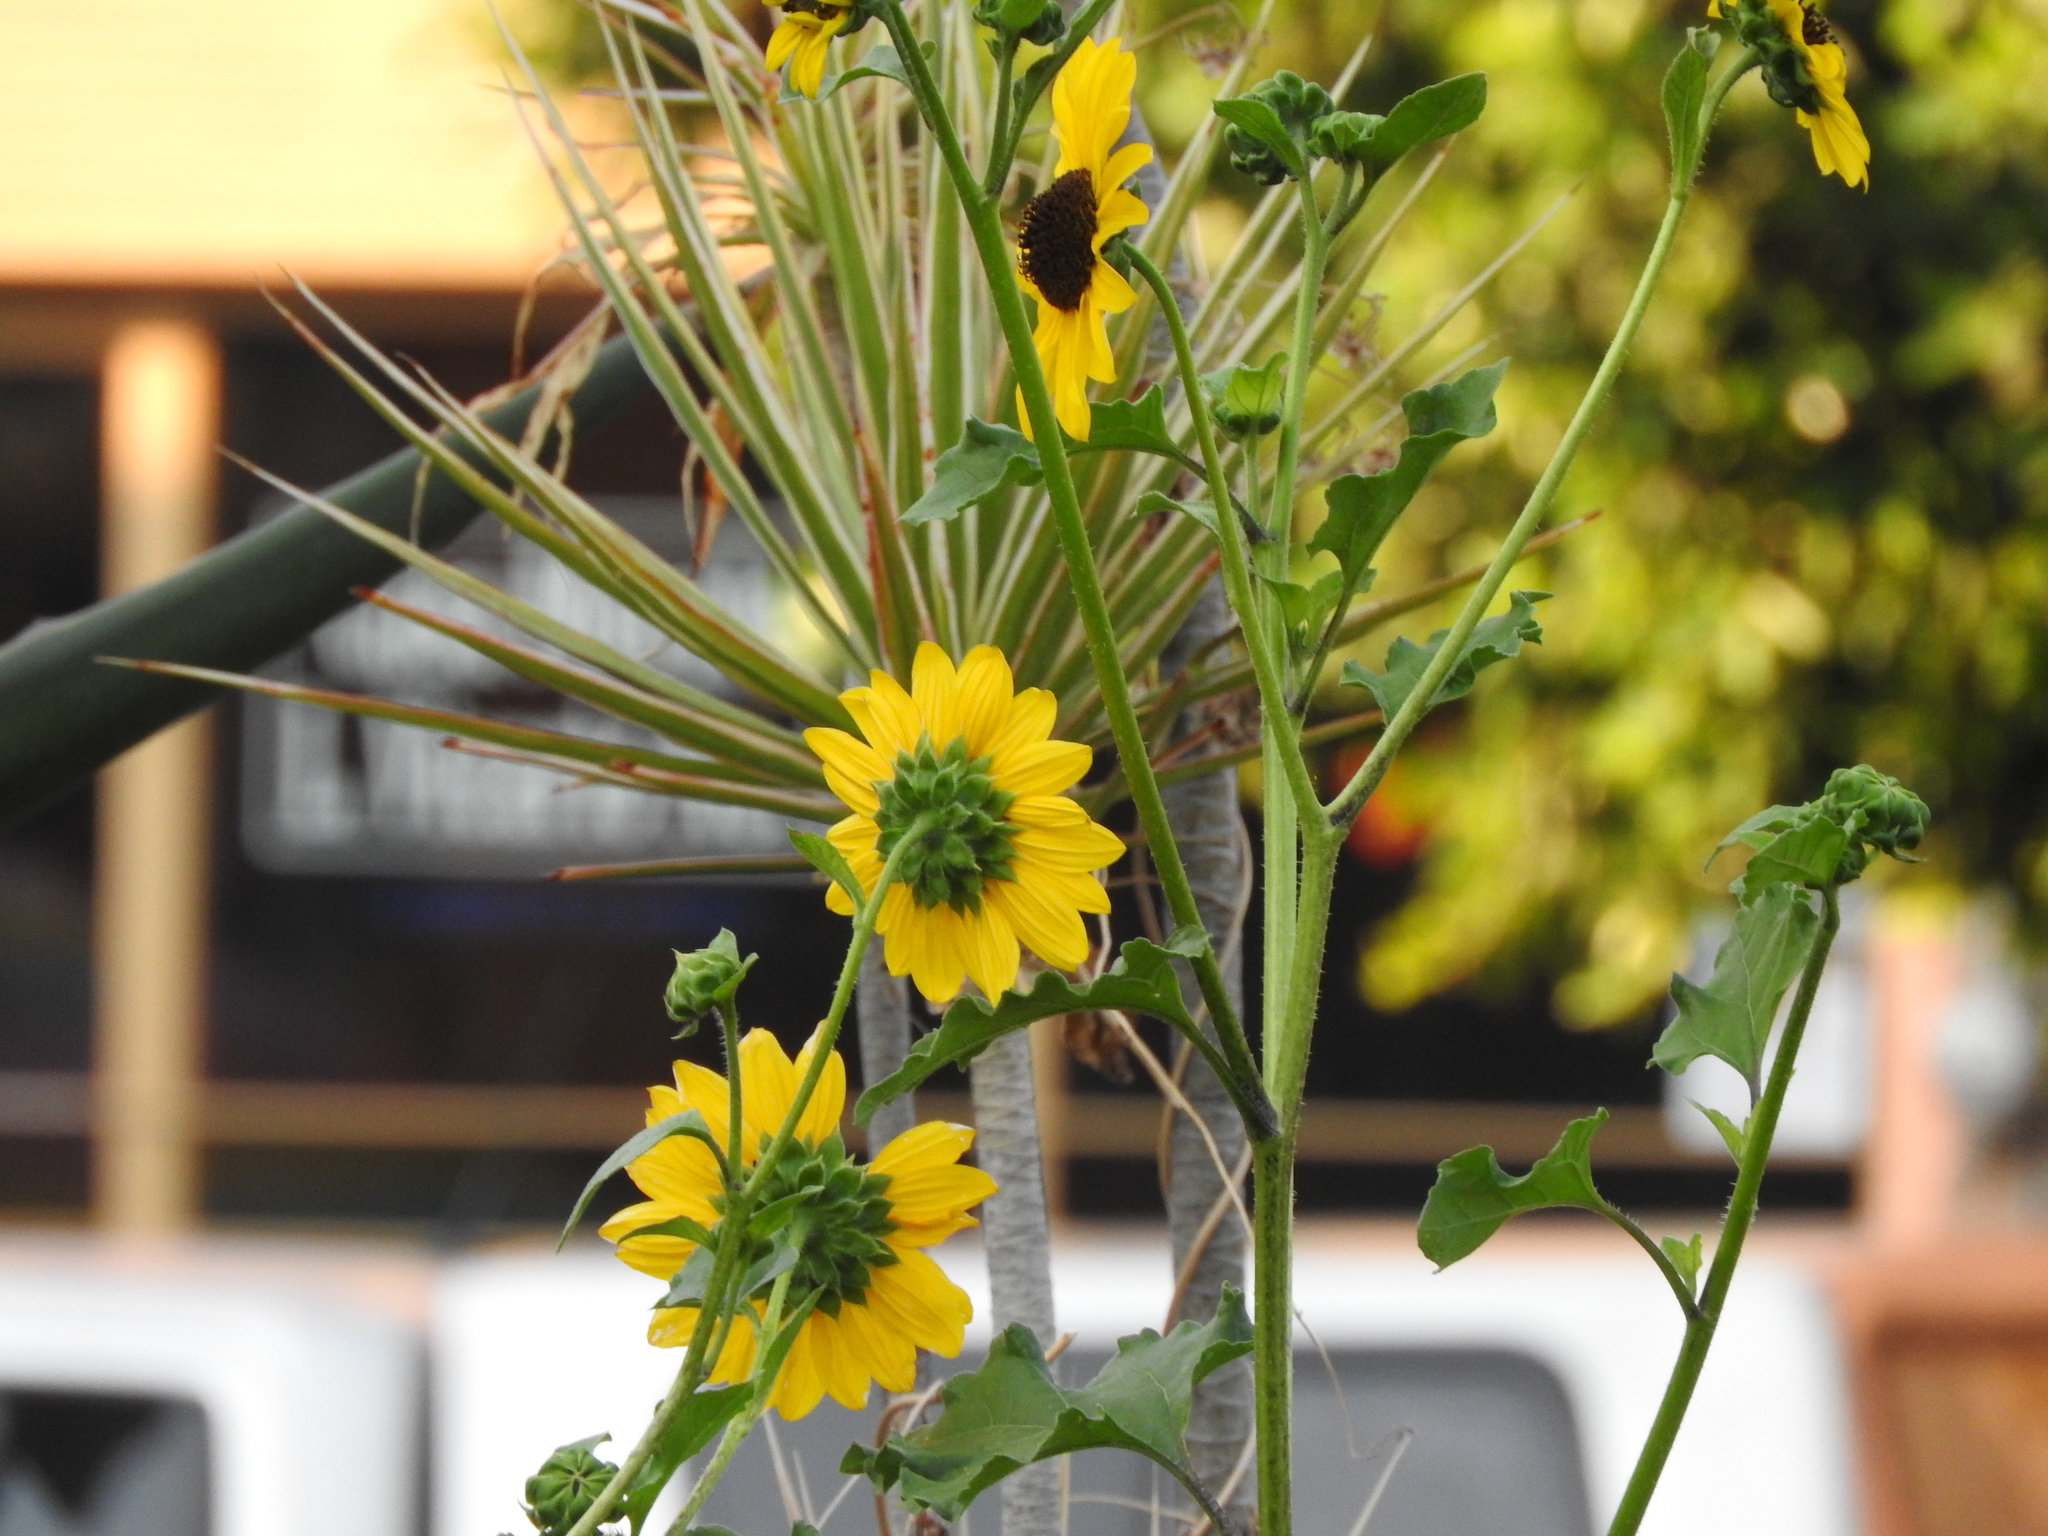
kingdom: Plantae
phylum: Tracheophyta
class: Magnoliopsida
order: Asterales
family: Asteraceae
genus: Helianthus
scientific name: Helianthus annuus
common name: Sunflower
